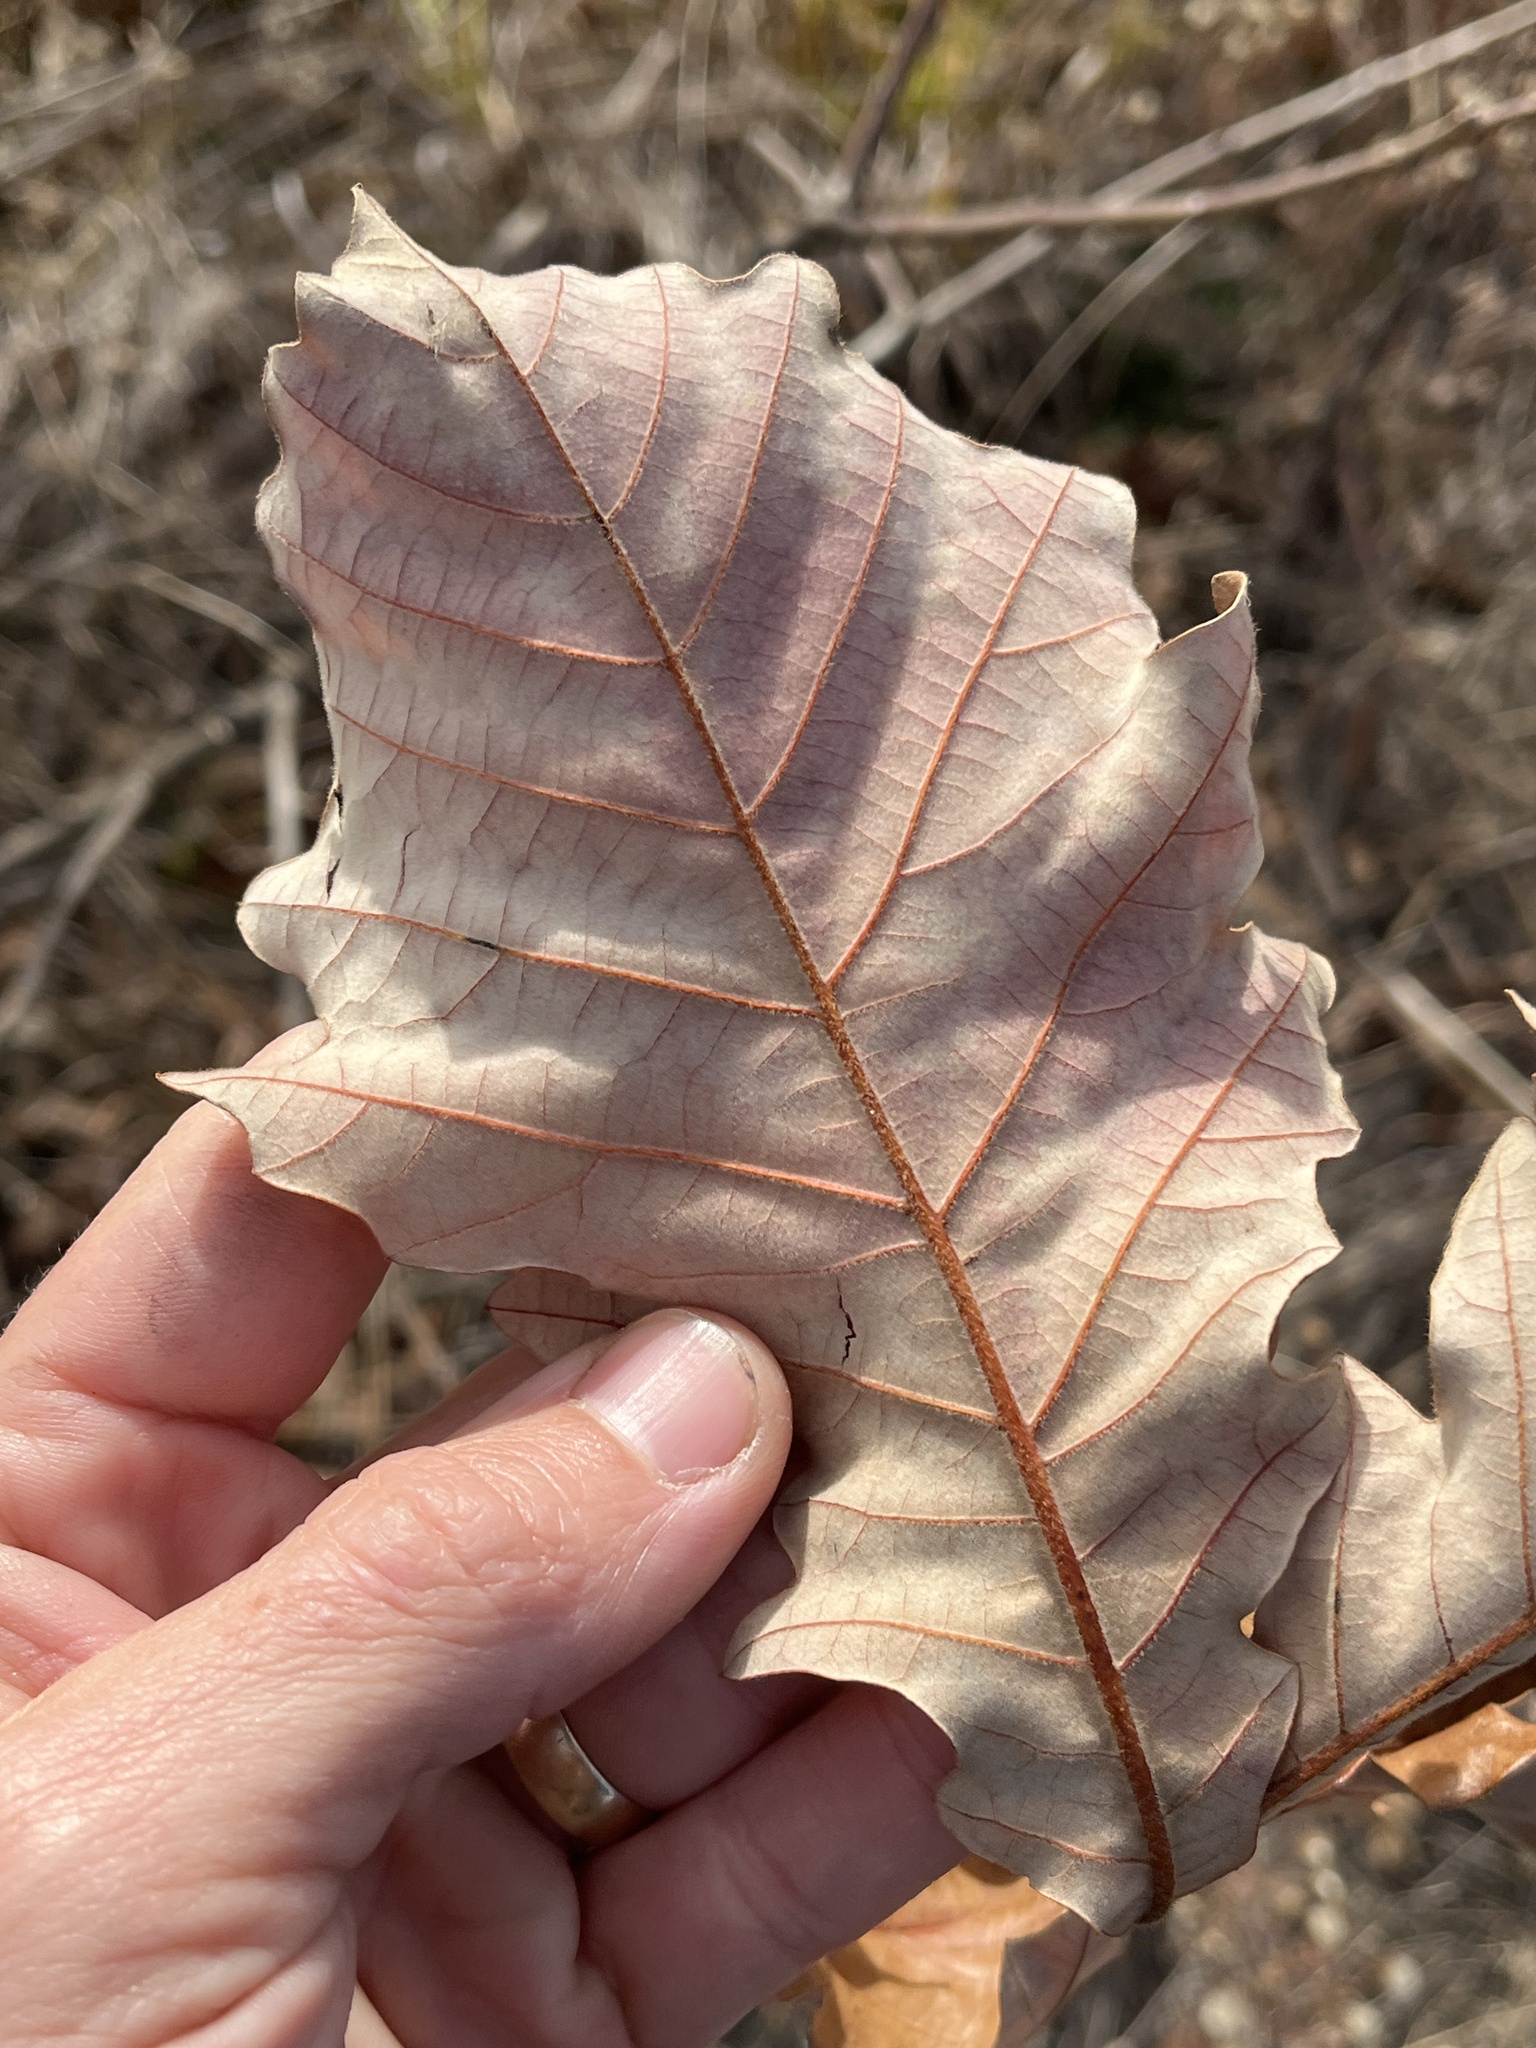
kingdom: Plantae
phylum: Tracheophyta
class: Magnoliopsida
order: Fagales
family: Fagaceae
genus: Quercus
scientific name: Quercus bicolor
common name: Swamp white oak
